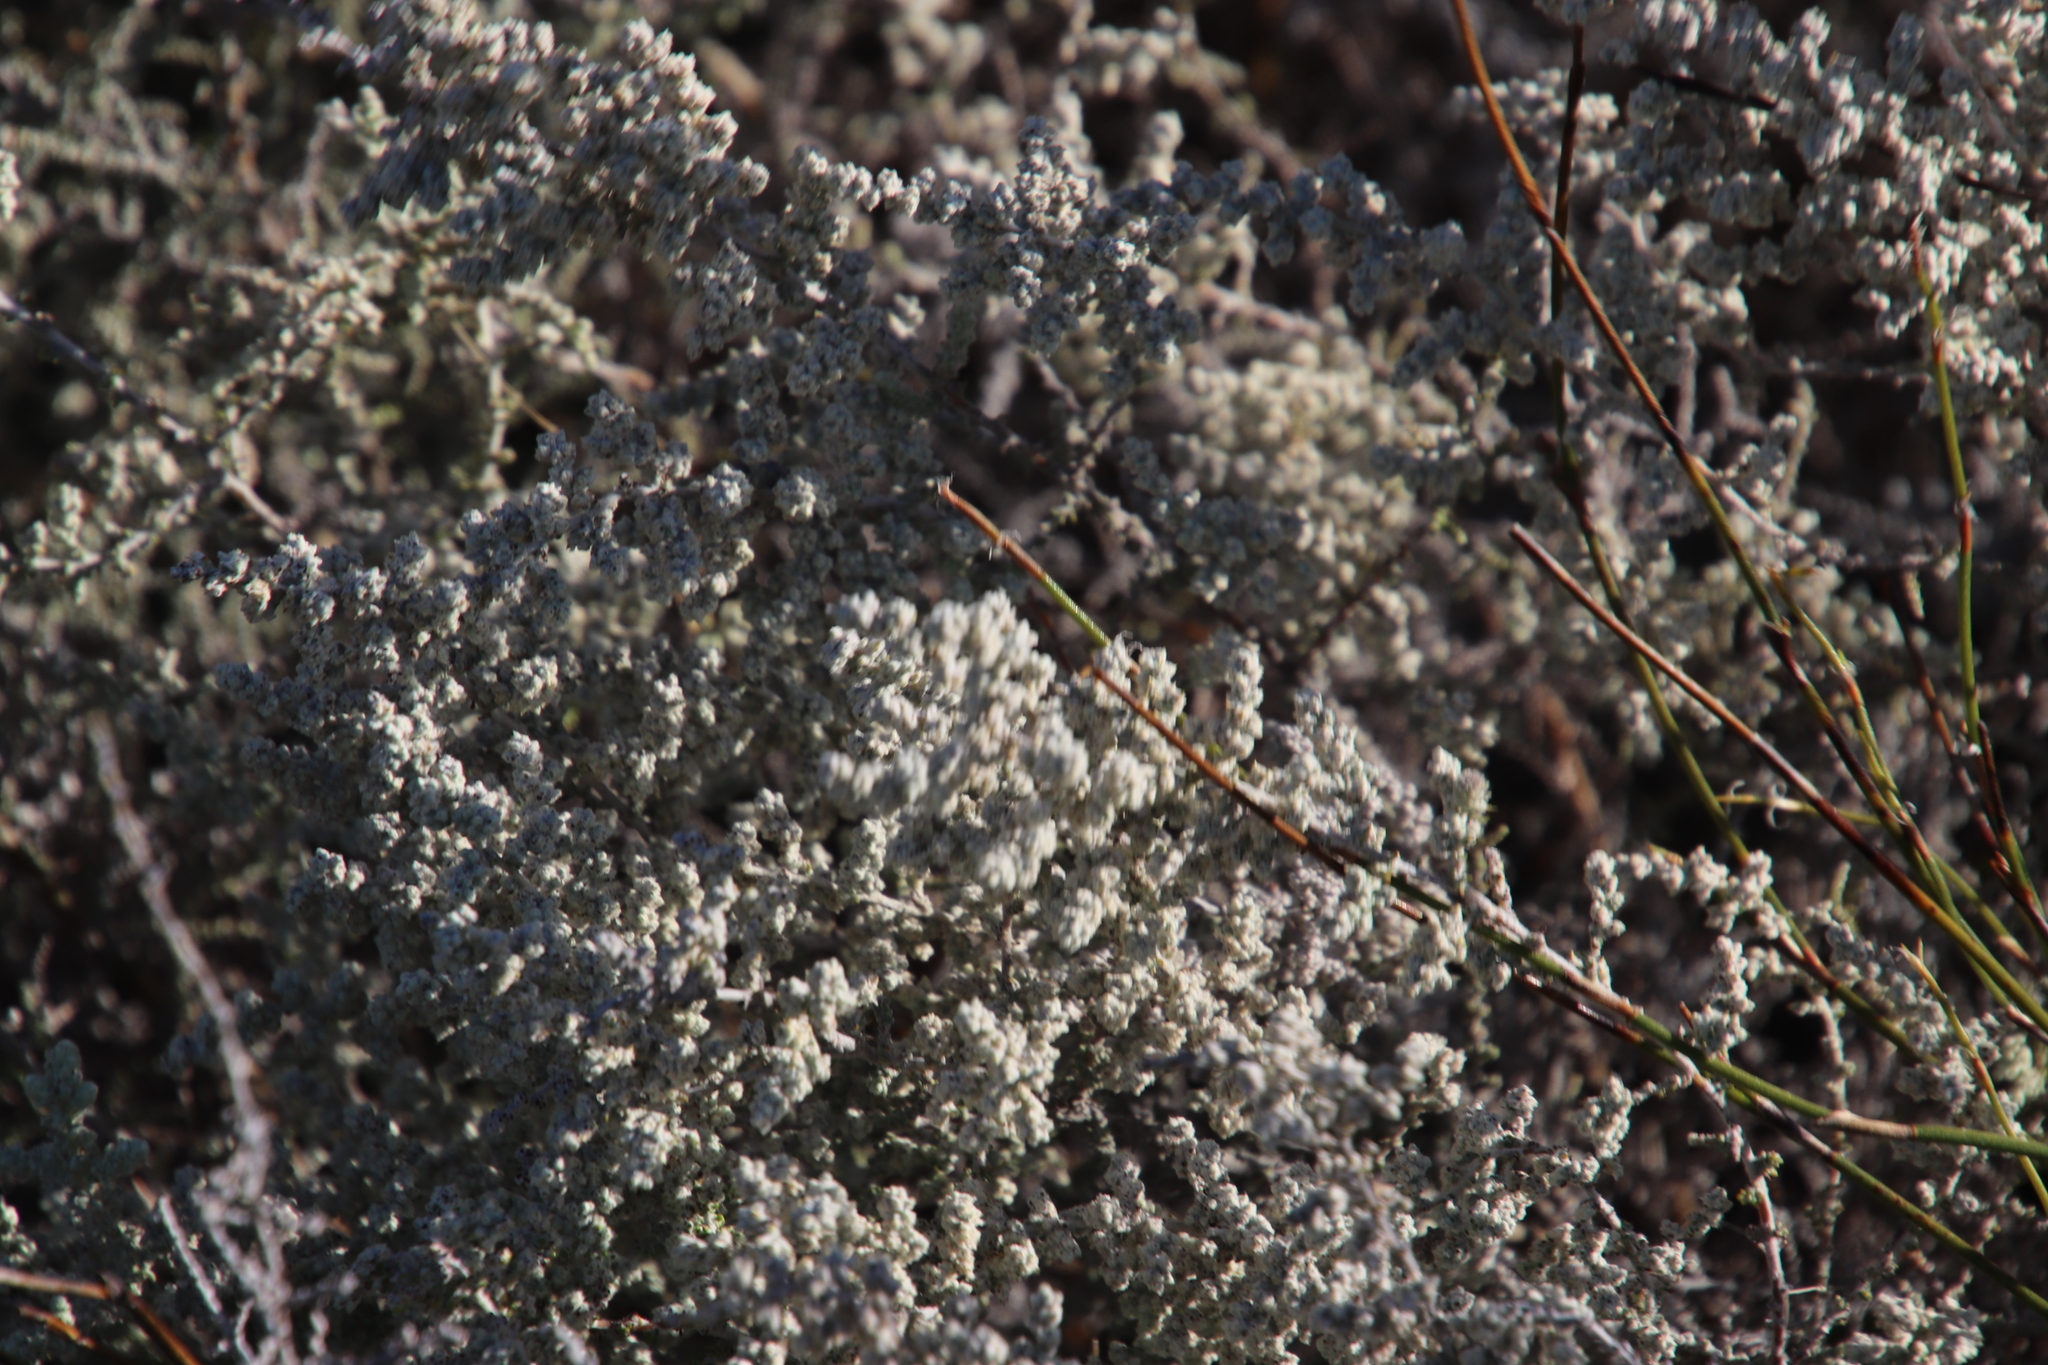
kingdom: Plantae
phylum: Tracheophyta
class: Magnoliopsida
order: Asterales
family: Asteraceae
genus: Seriphium
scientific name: Seriphium plumosum
